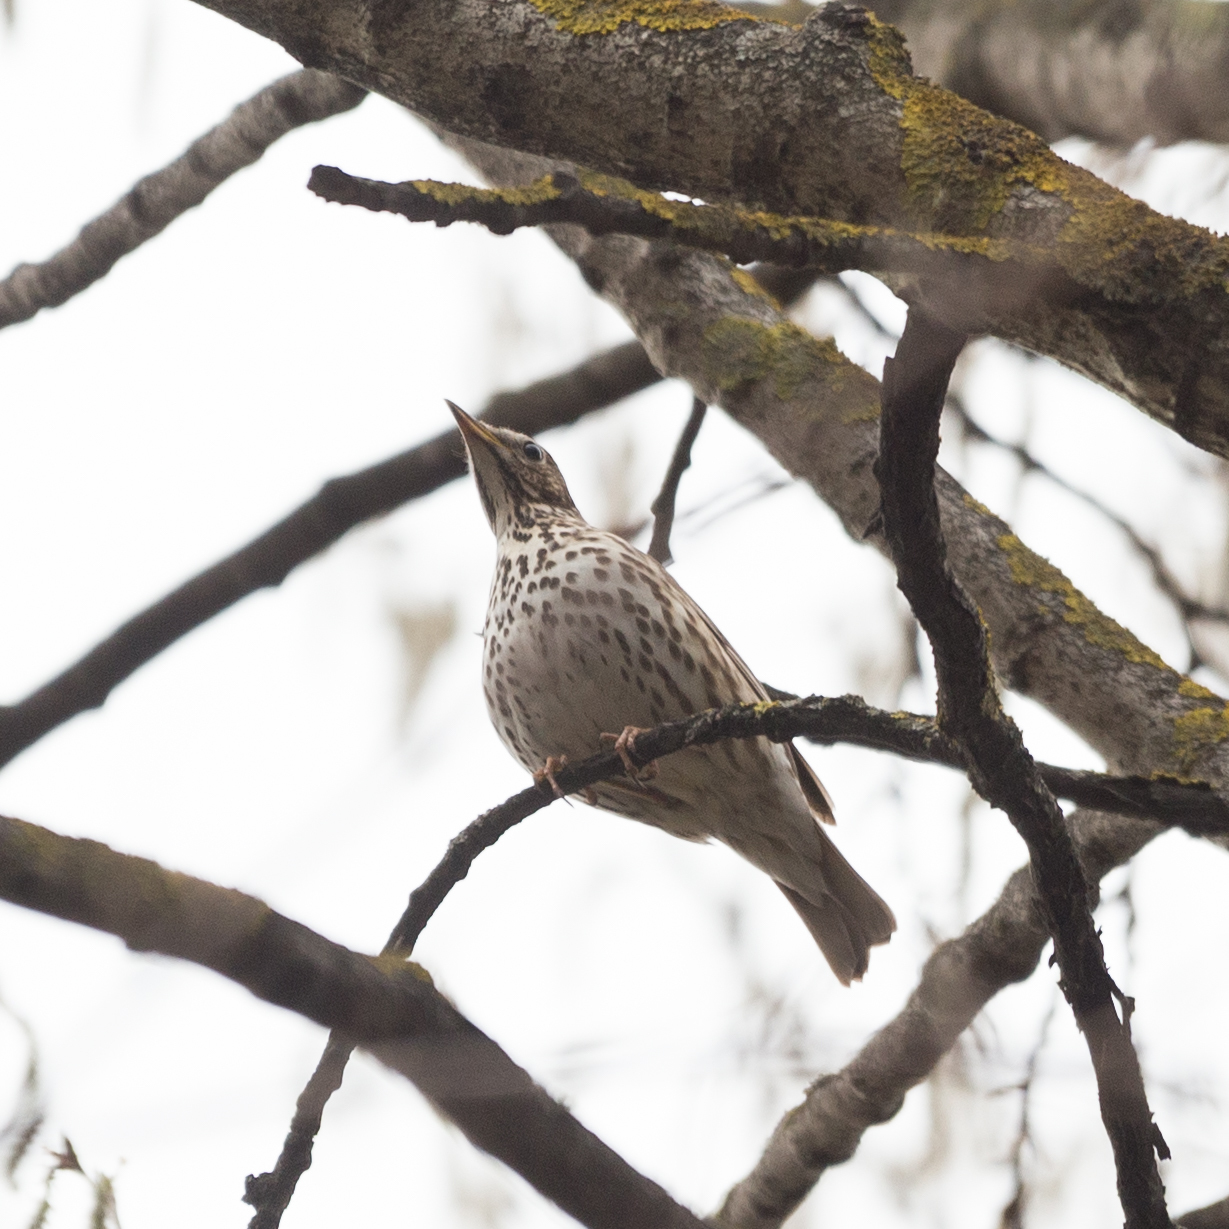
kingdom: Animalia
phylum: Chordata
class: Aves
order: Passeriformes
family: Turdidae
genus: Turdus
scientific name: Turdus philomelos
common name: Song thrush
